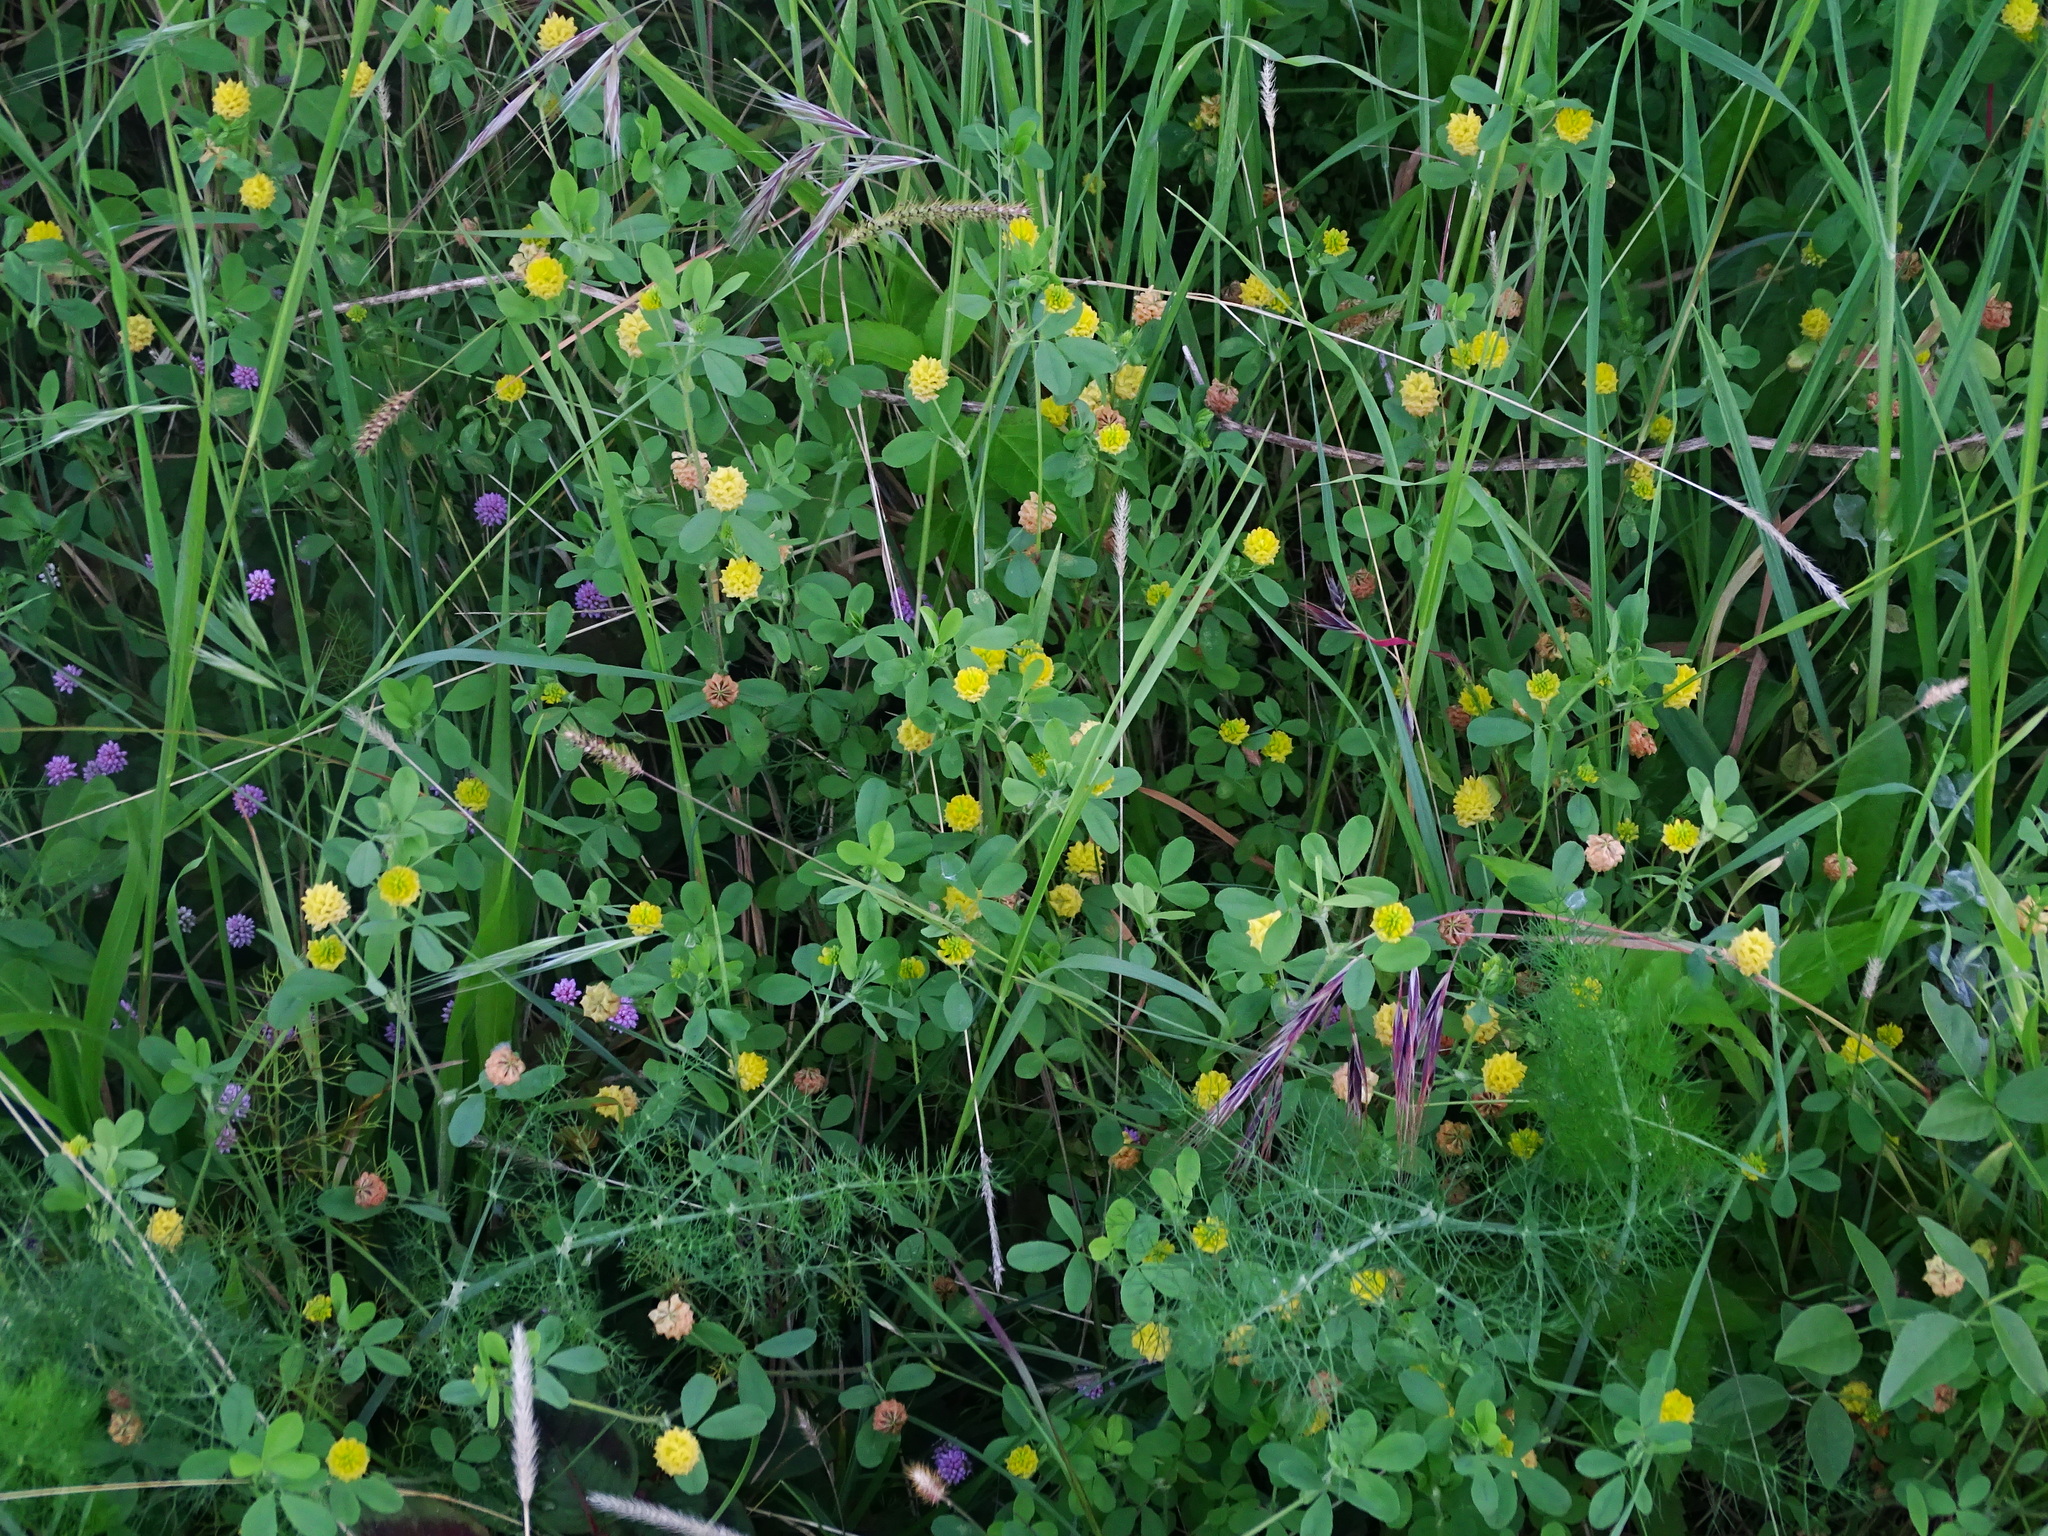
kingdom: Plantae
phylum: Tracheophyta
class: Magnoliopsida
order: Fabales
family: Fabaceae
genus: Trifolium
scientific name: Trifolium campestre
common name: Field clover
